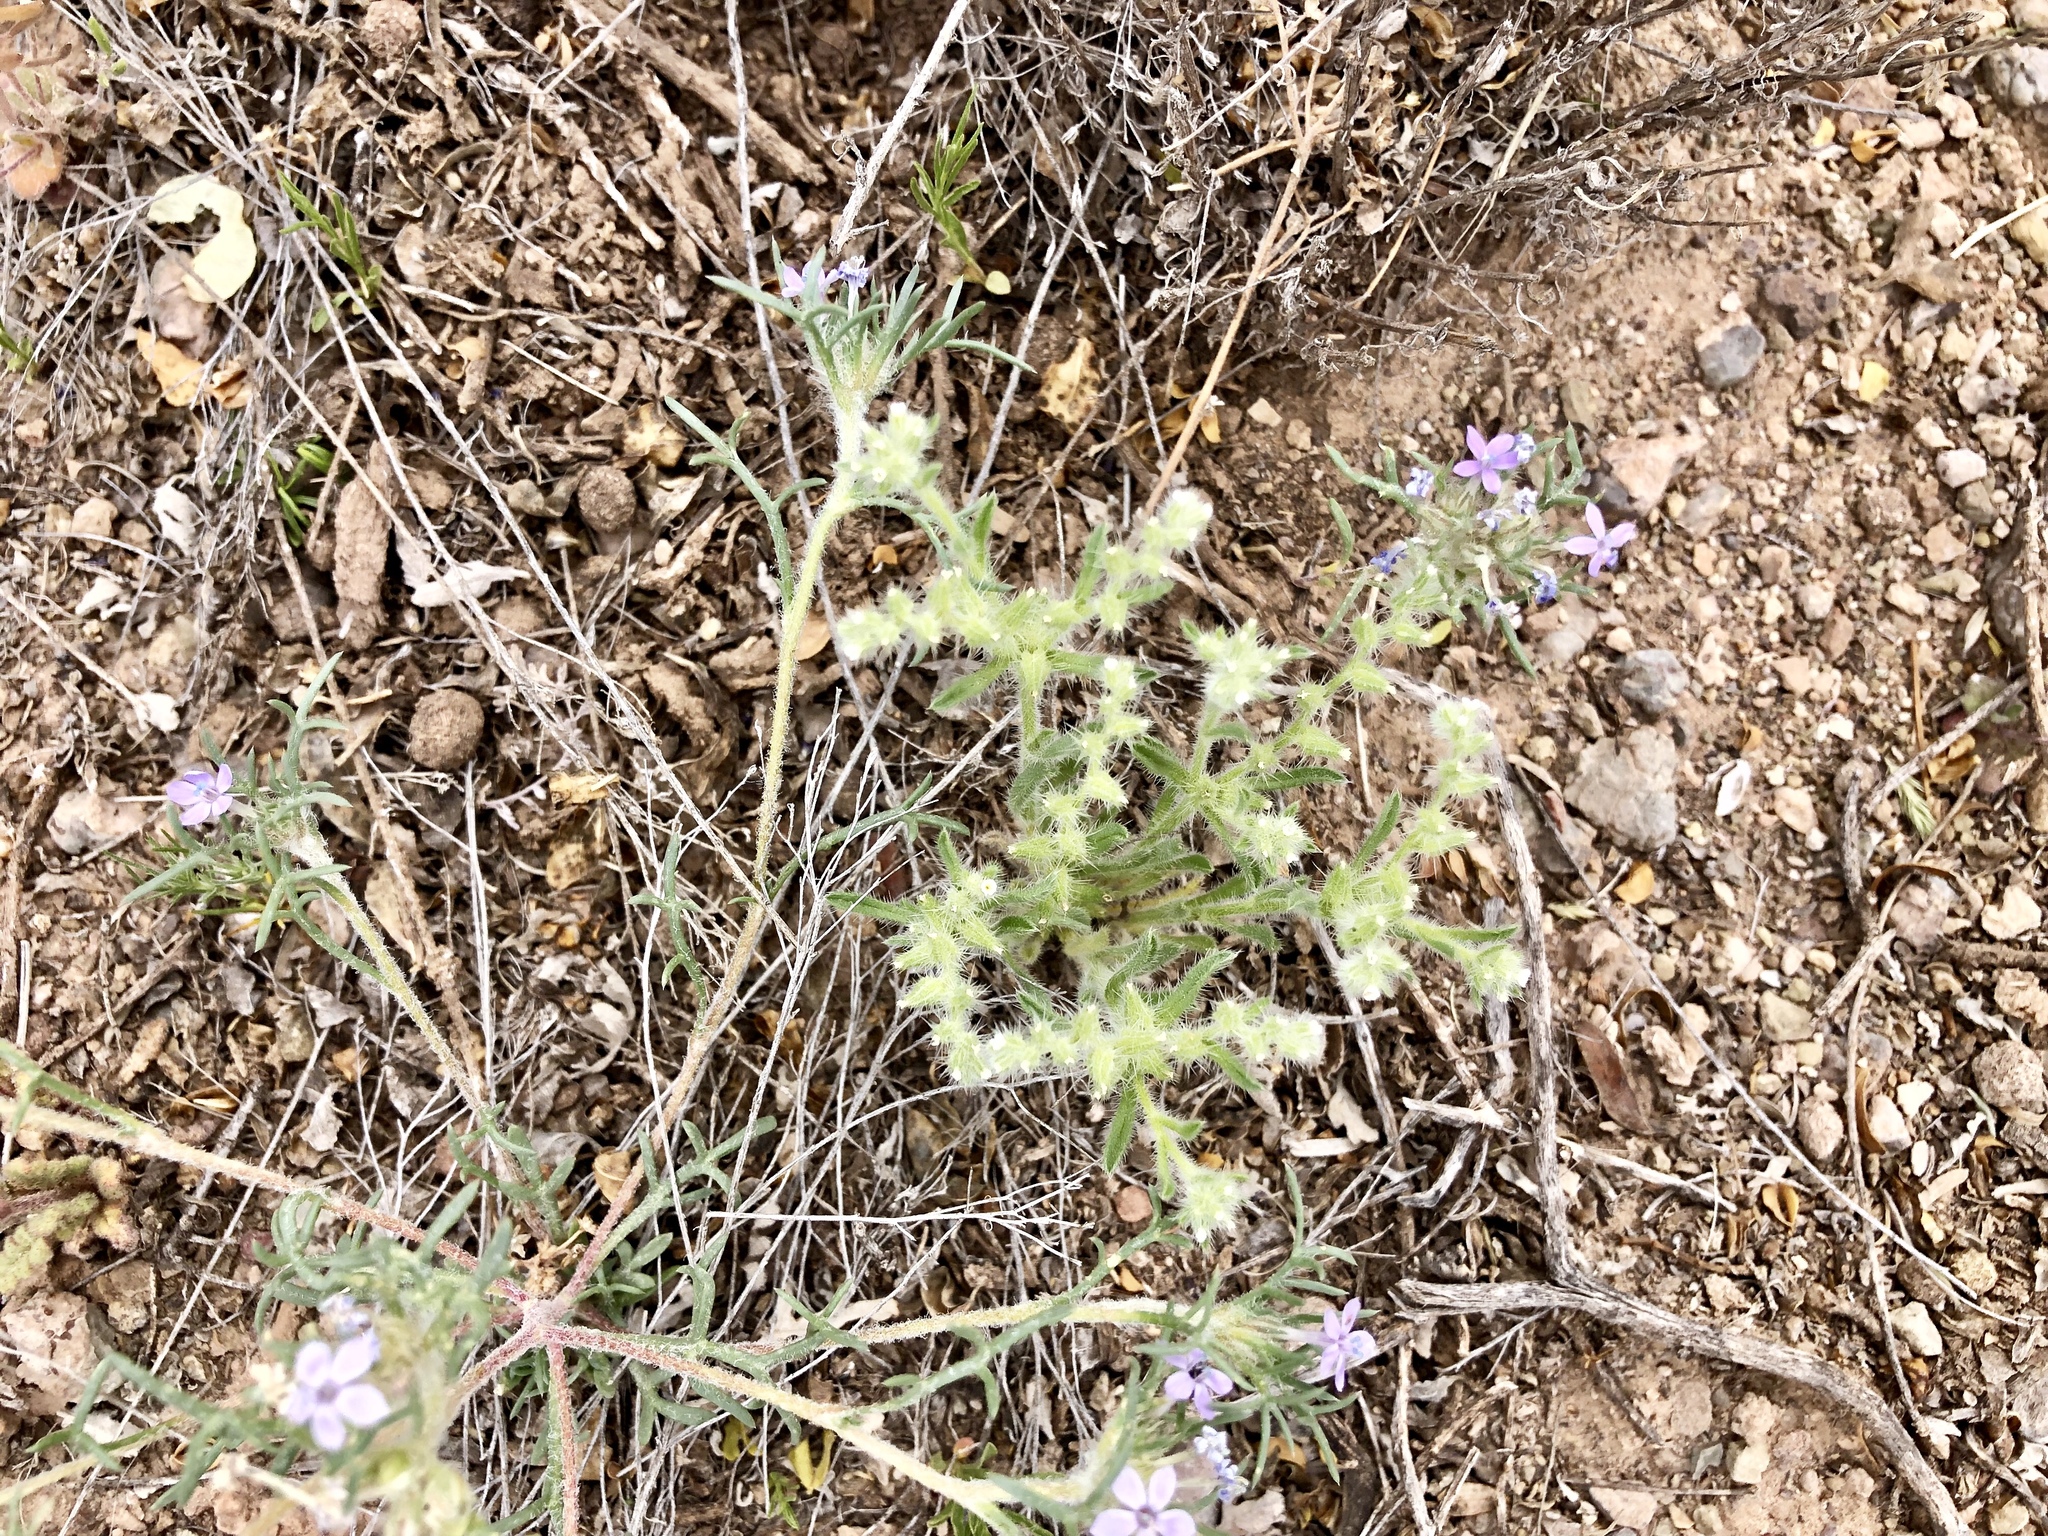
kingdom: Plantae
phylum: Tracheophyta
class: Magnoliopsida
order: Boraginales
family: Boraginaceae
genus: Cryptantha
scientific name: Cryptantha crassisepala
